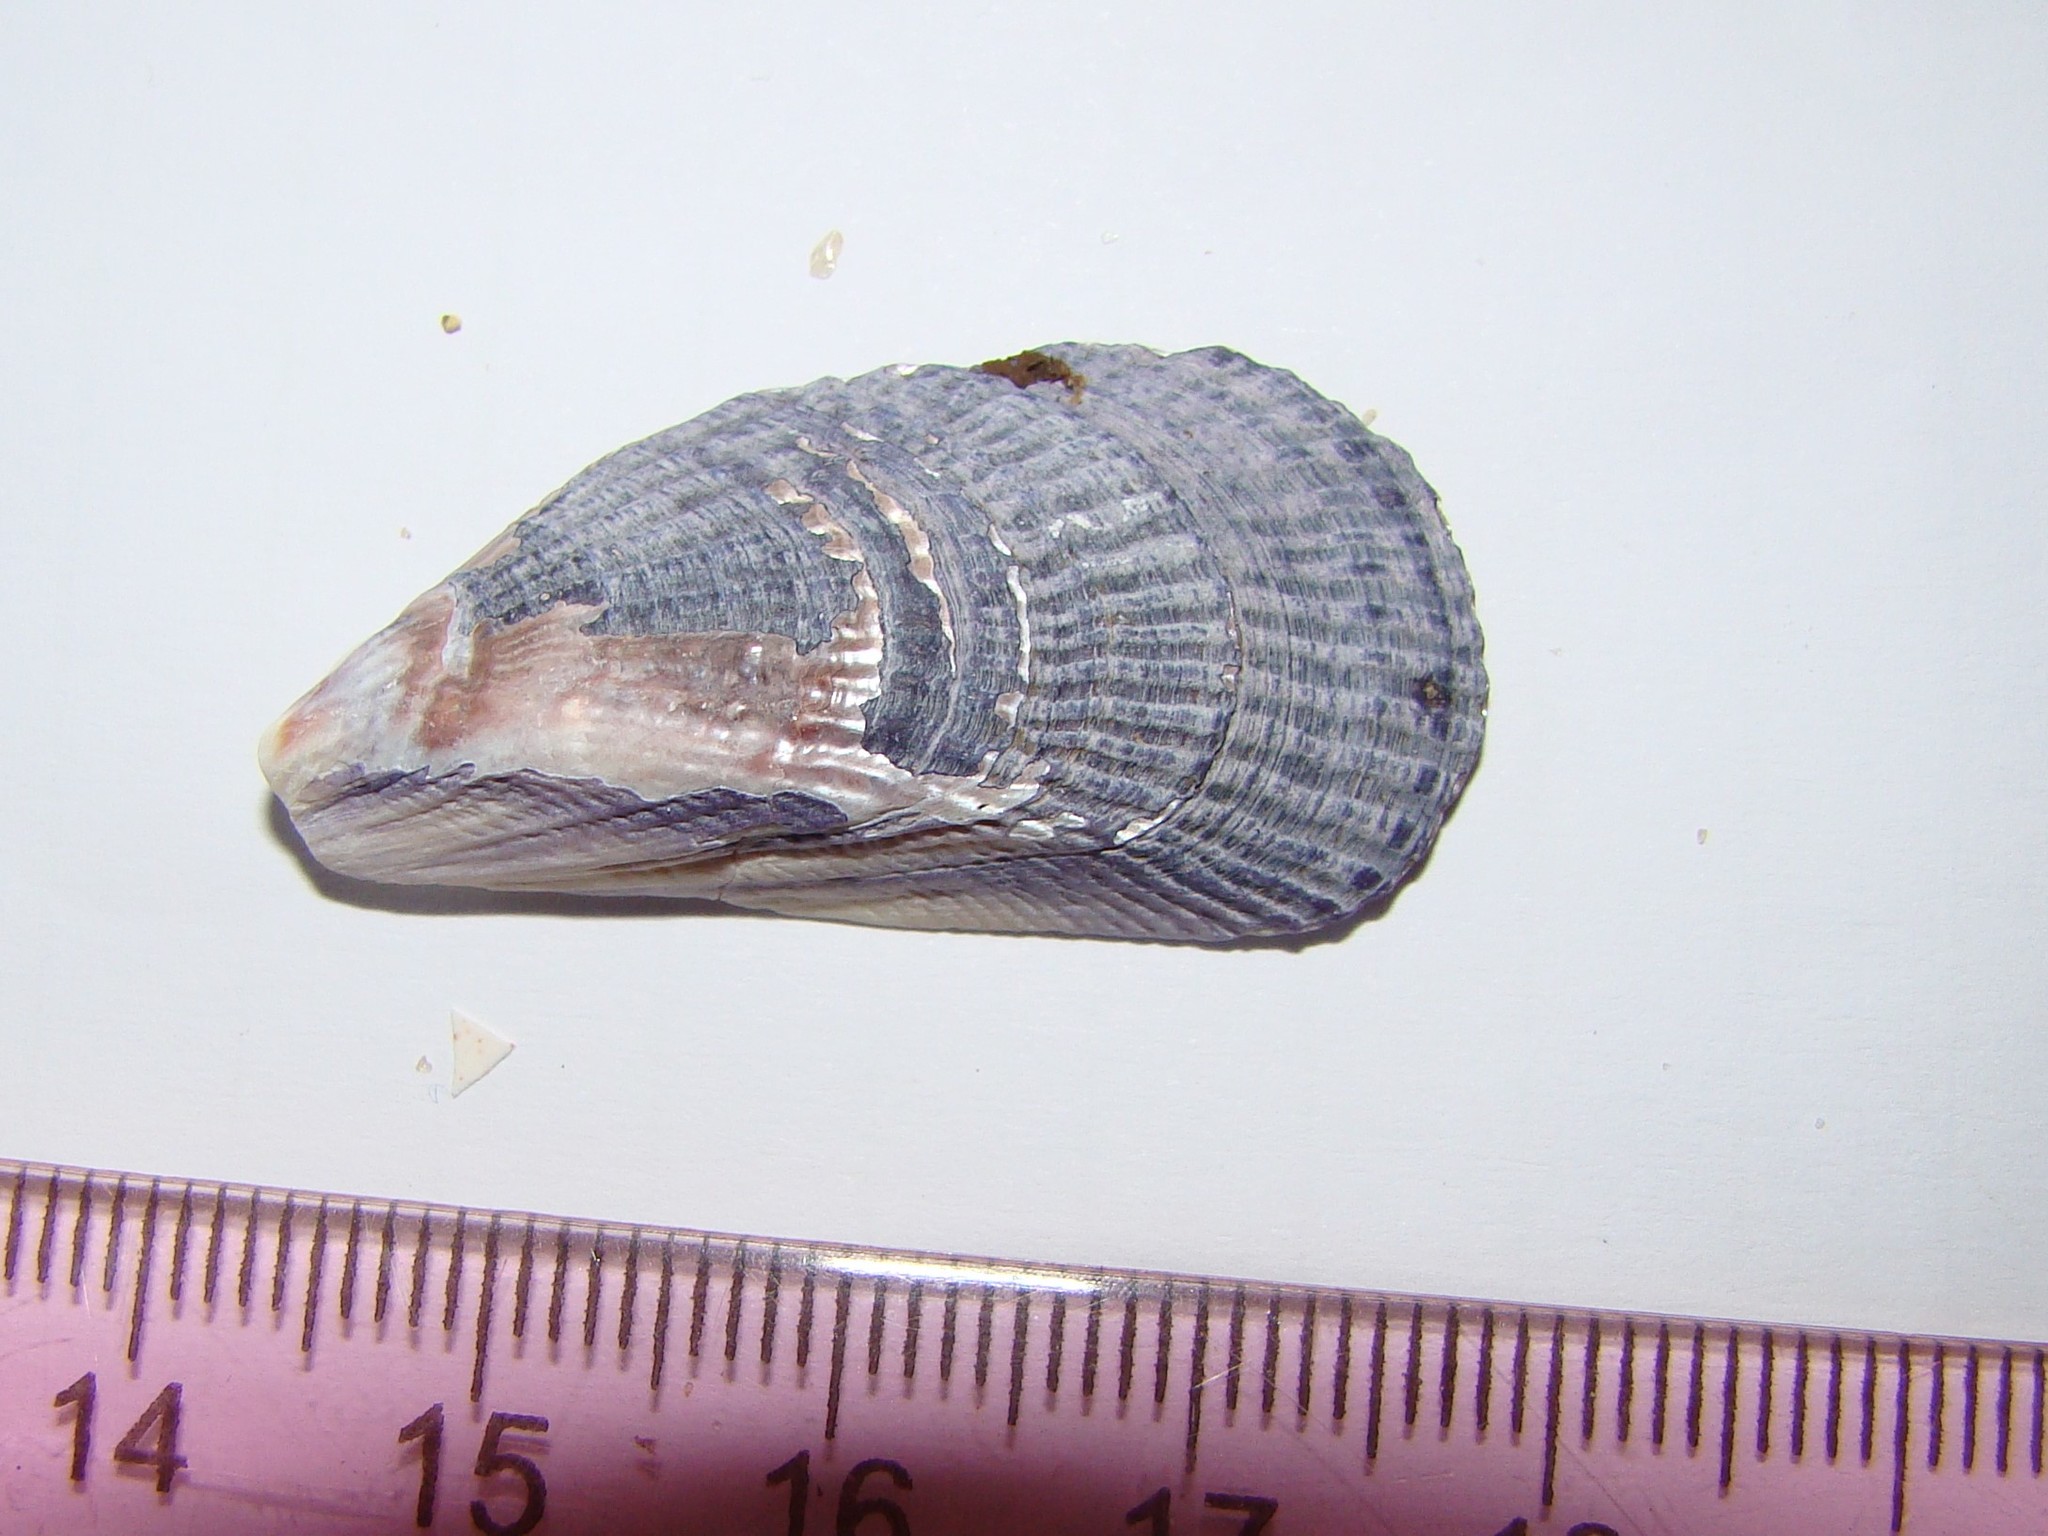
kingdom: Animalia
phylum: Mollusca
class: Bivalvia
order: Mytilida
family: Mytilidae
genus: Aulacomya
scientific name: Aulacomya maoriana
